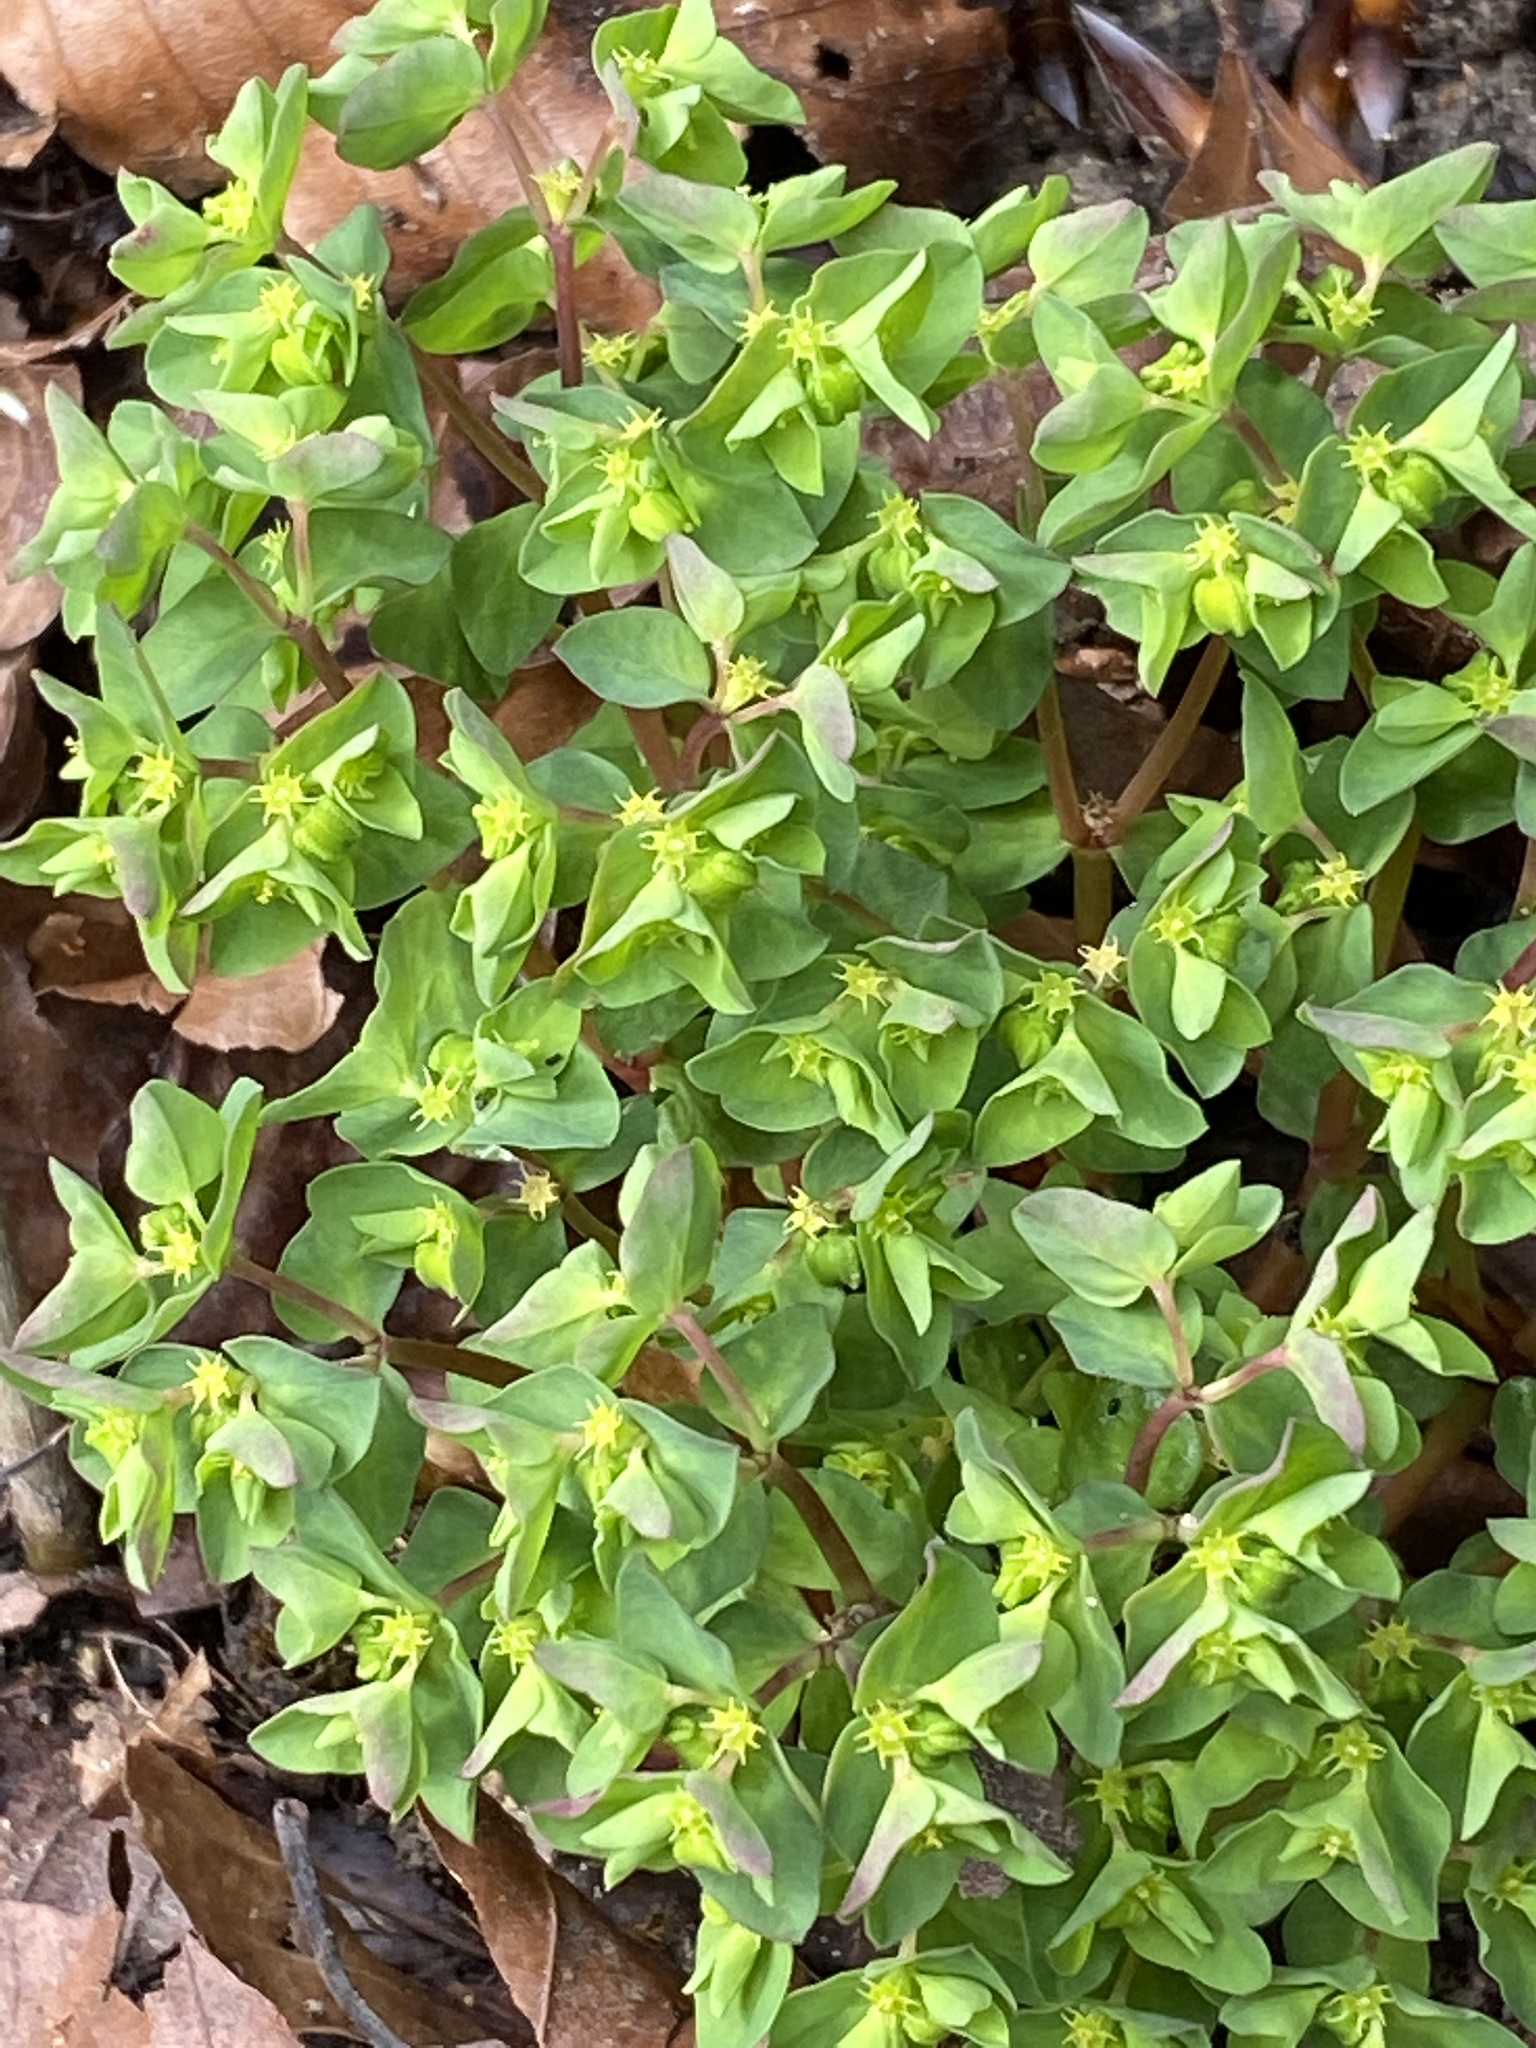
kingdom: Plantae
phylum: Tracheophyta
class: Magnoliopsida
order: Malpighiales
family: Euphorbiaceae
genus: Euphorbia
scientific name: Euphorbia peplus
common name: Petty spurge
